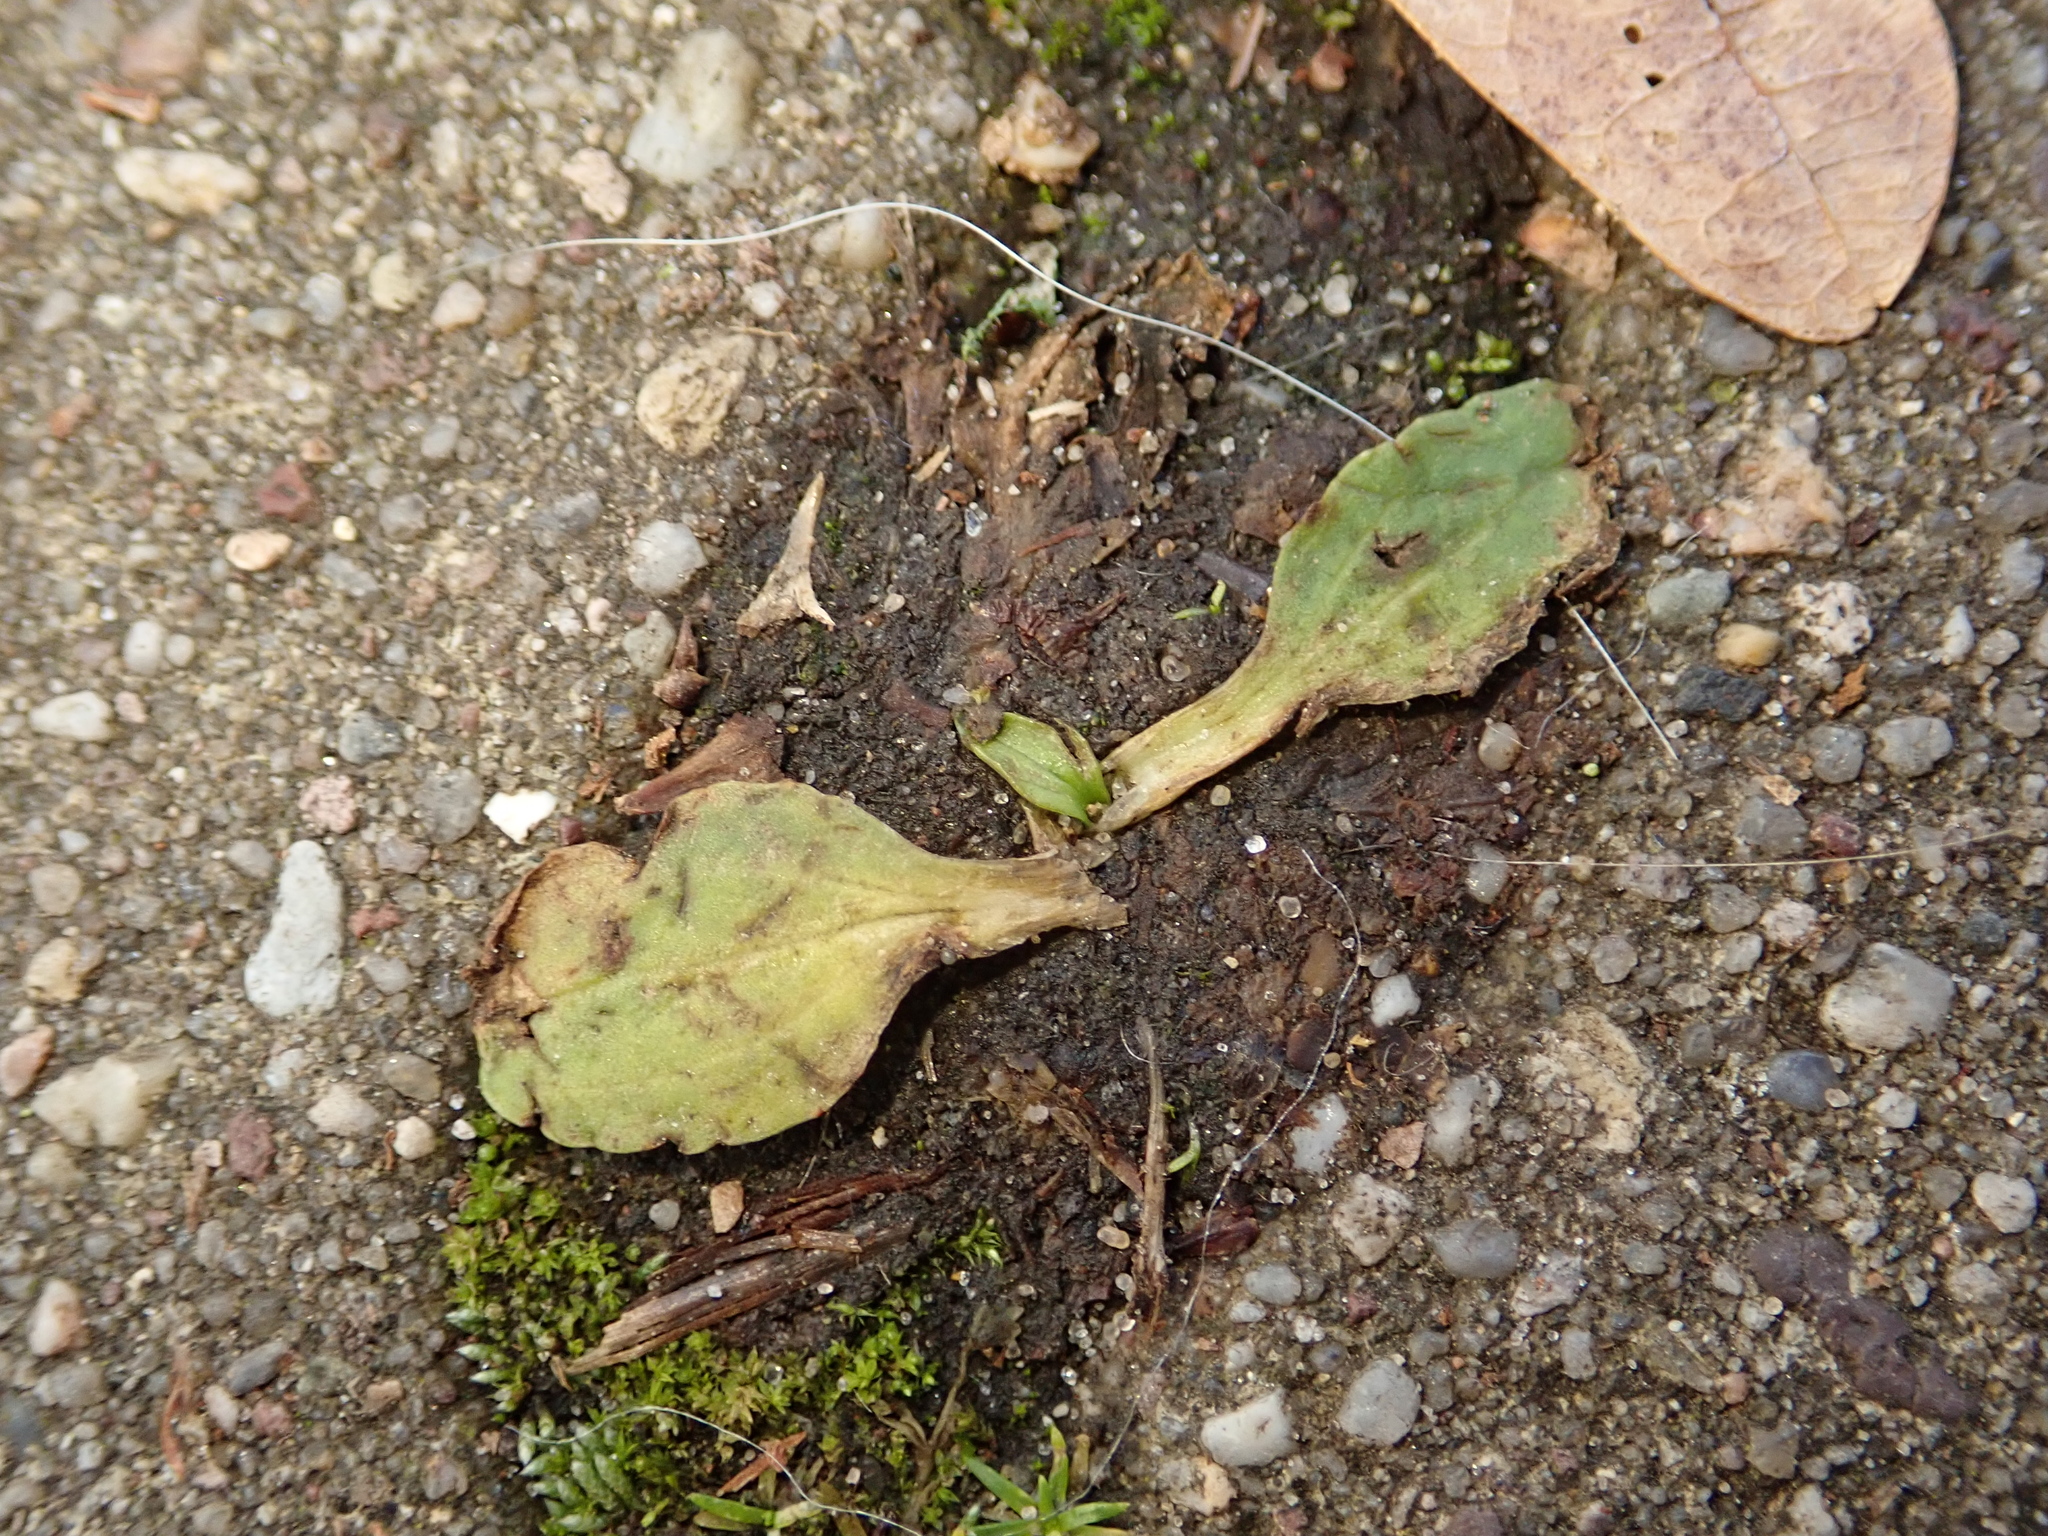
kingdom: Plantae
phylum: Tracheophyta
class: Magnoliopsida
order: Lamiales
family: Plantaginaceae
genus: Plantago
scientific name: Plantago major
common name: Common plantain
